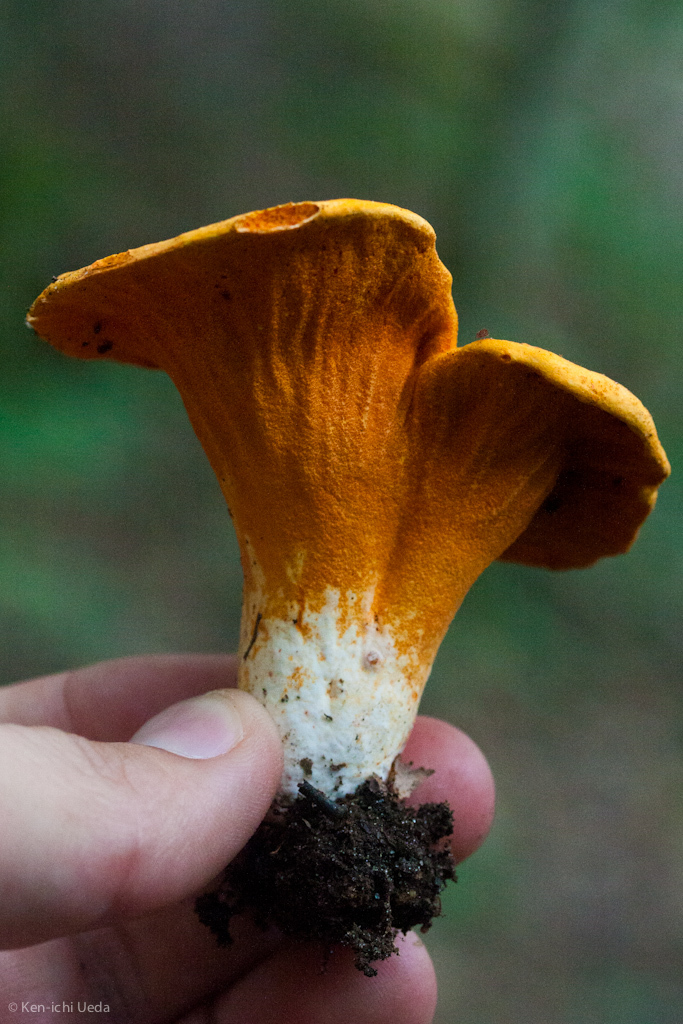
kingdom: Fungi
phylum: Ascomycota
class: Sordariomycetes
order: Hypocreales
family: Hypocreaceae
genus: Hypomyces
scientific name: Hypomyces lactifluorum
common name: Lobster mushroom
